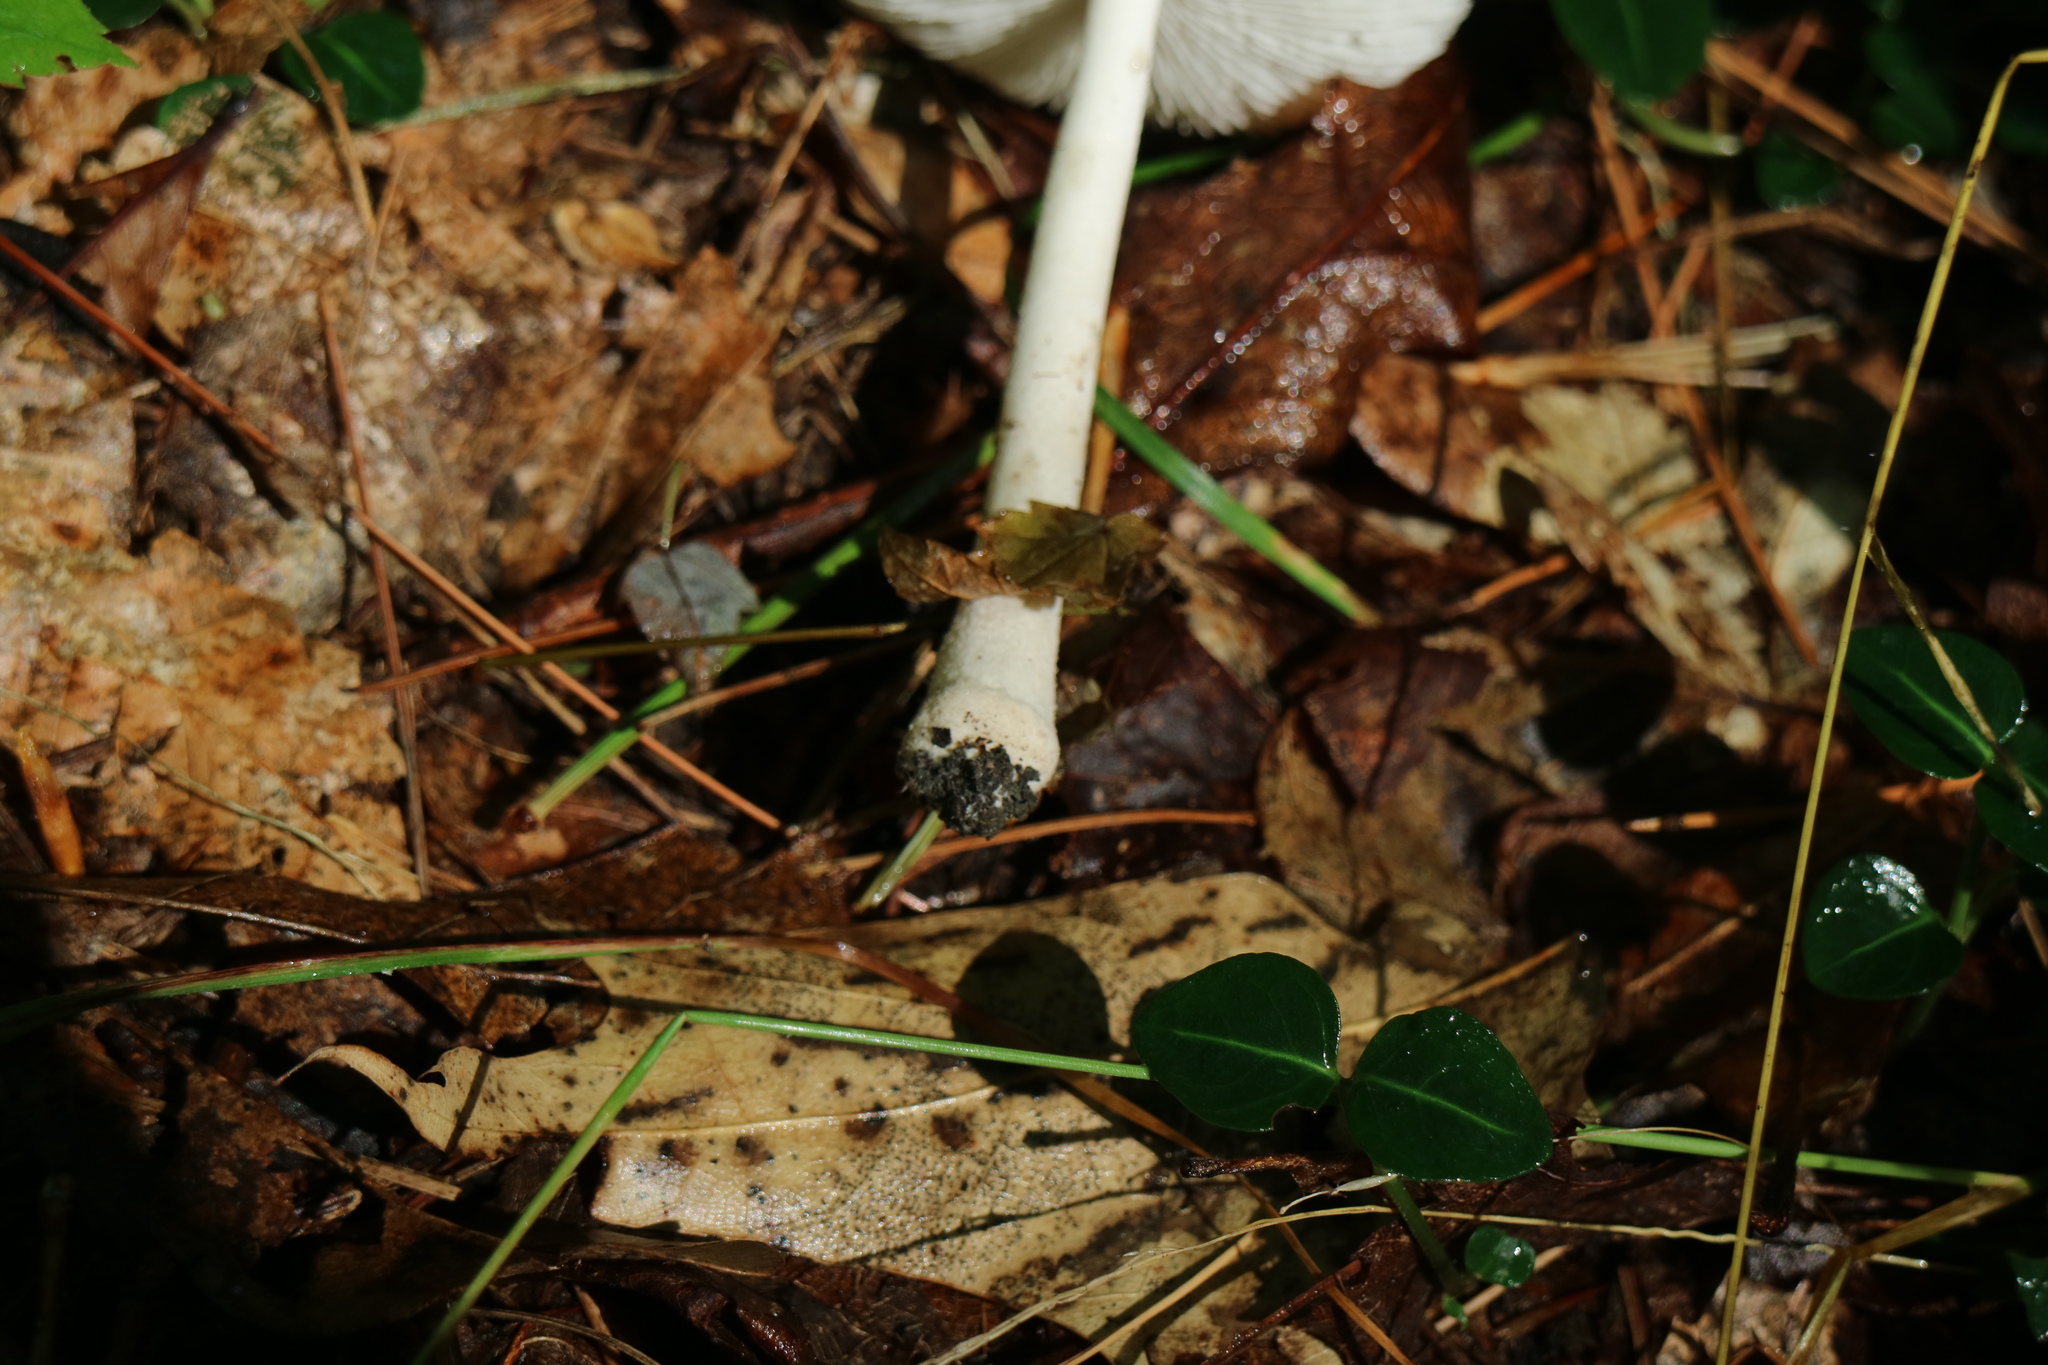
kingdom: Fungi
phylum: Basidiomycota
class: Agaricomycetes
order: Agaricales
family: Amanitaceae
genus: Amanita
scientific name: Amanita farinosa
